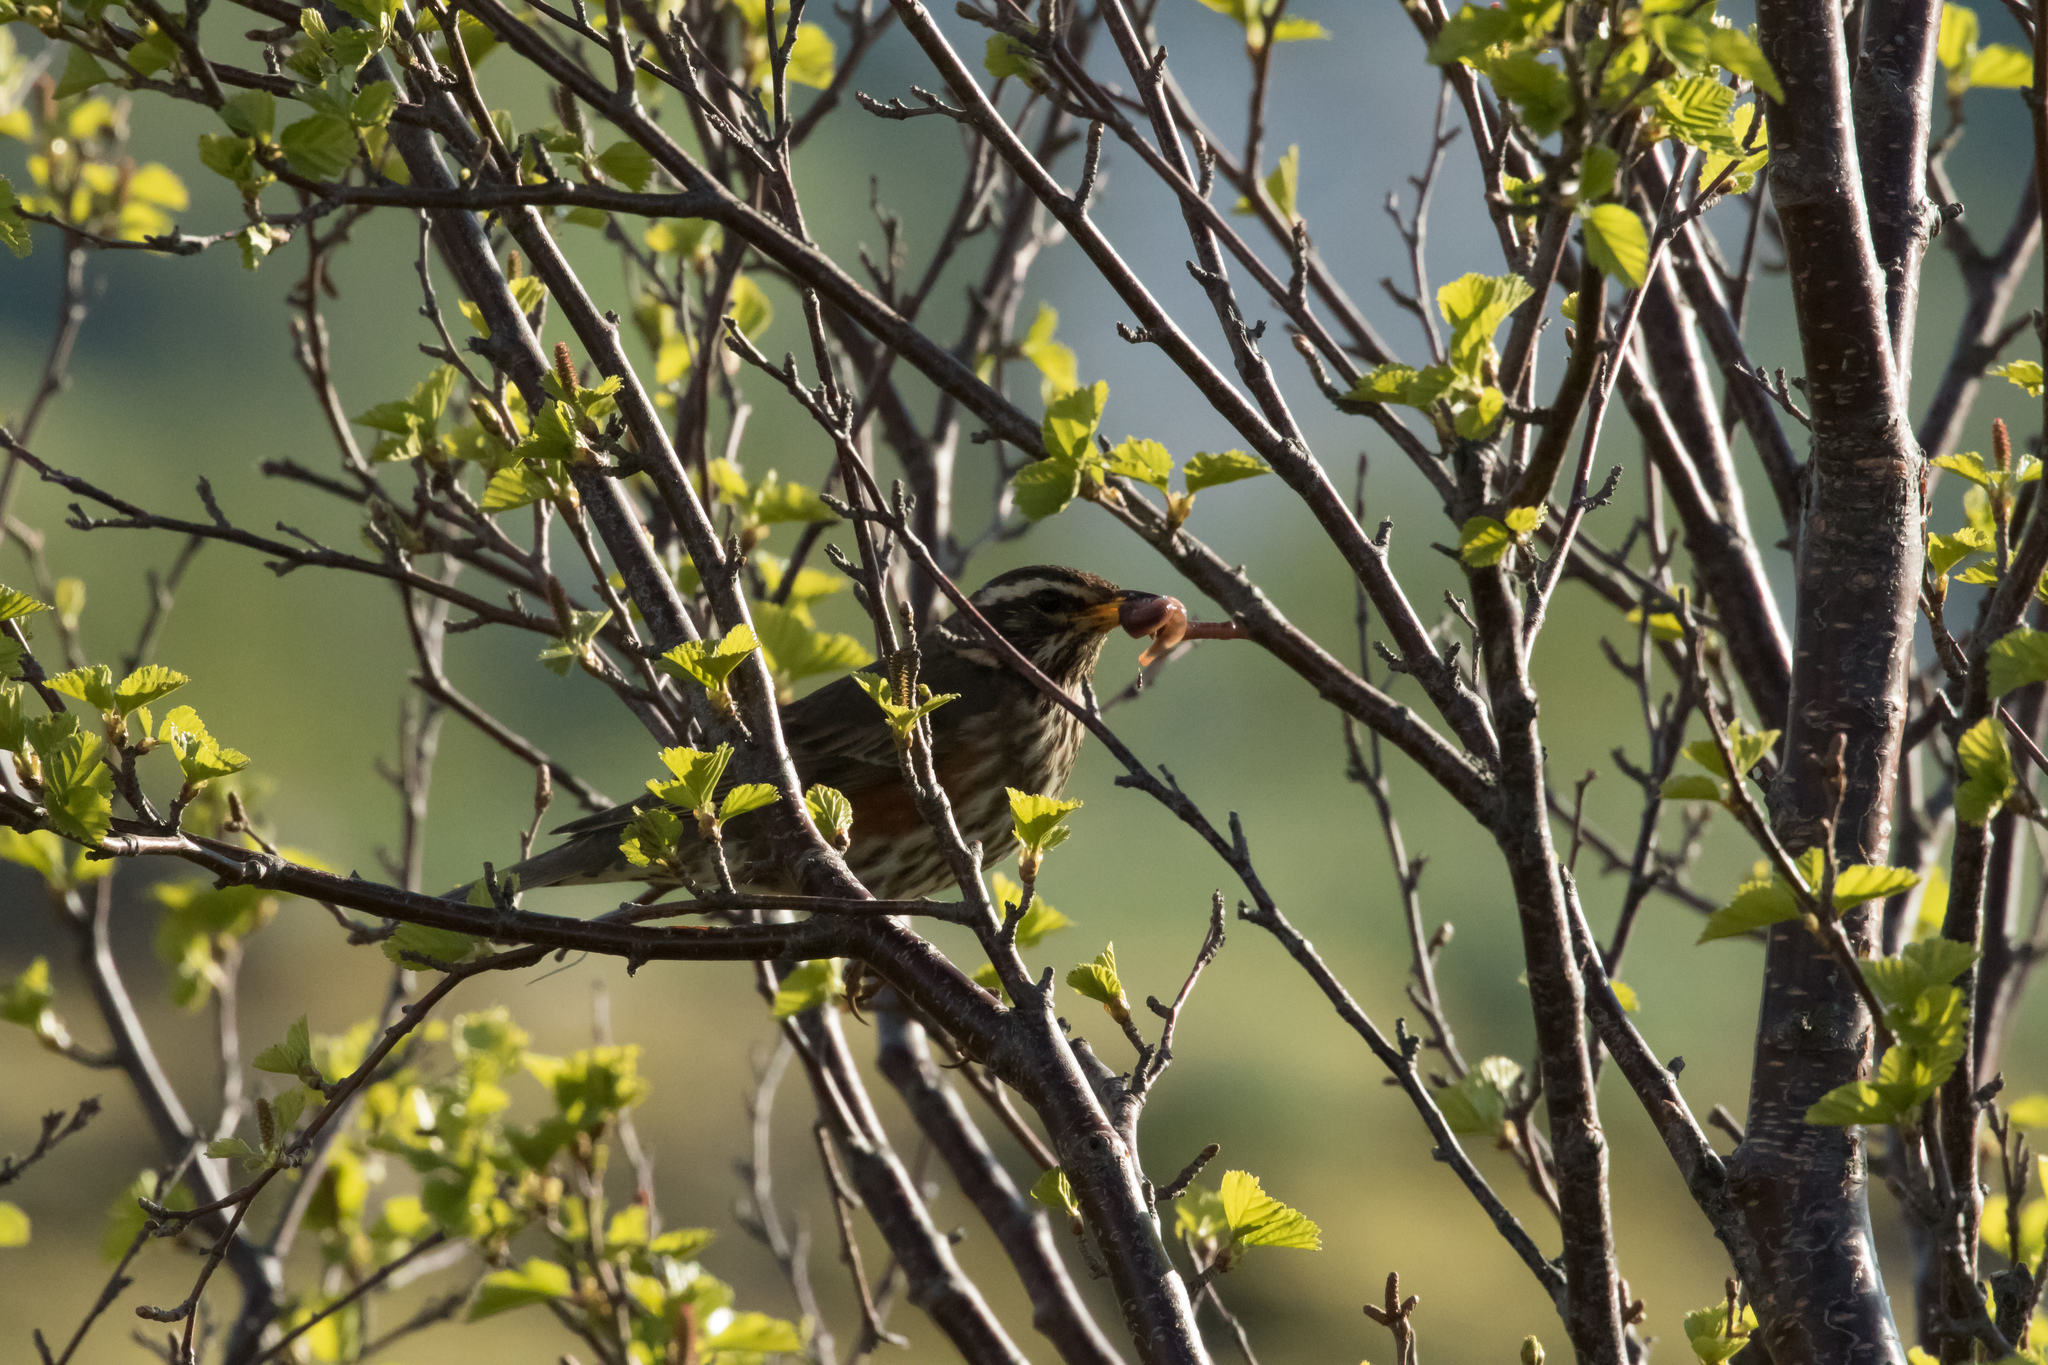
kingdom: Animalia
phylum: Chordata
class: Aves
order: Passeriformes
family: Turdidae
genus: Turdus
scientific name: Turdus iliacus
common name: Redwing
